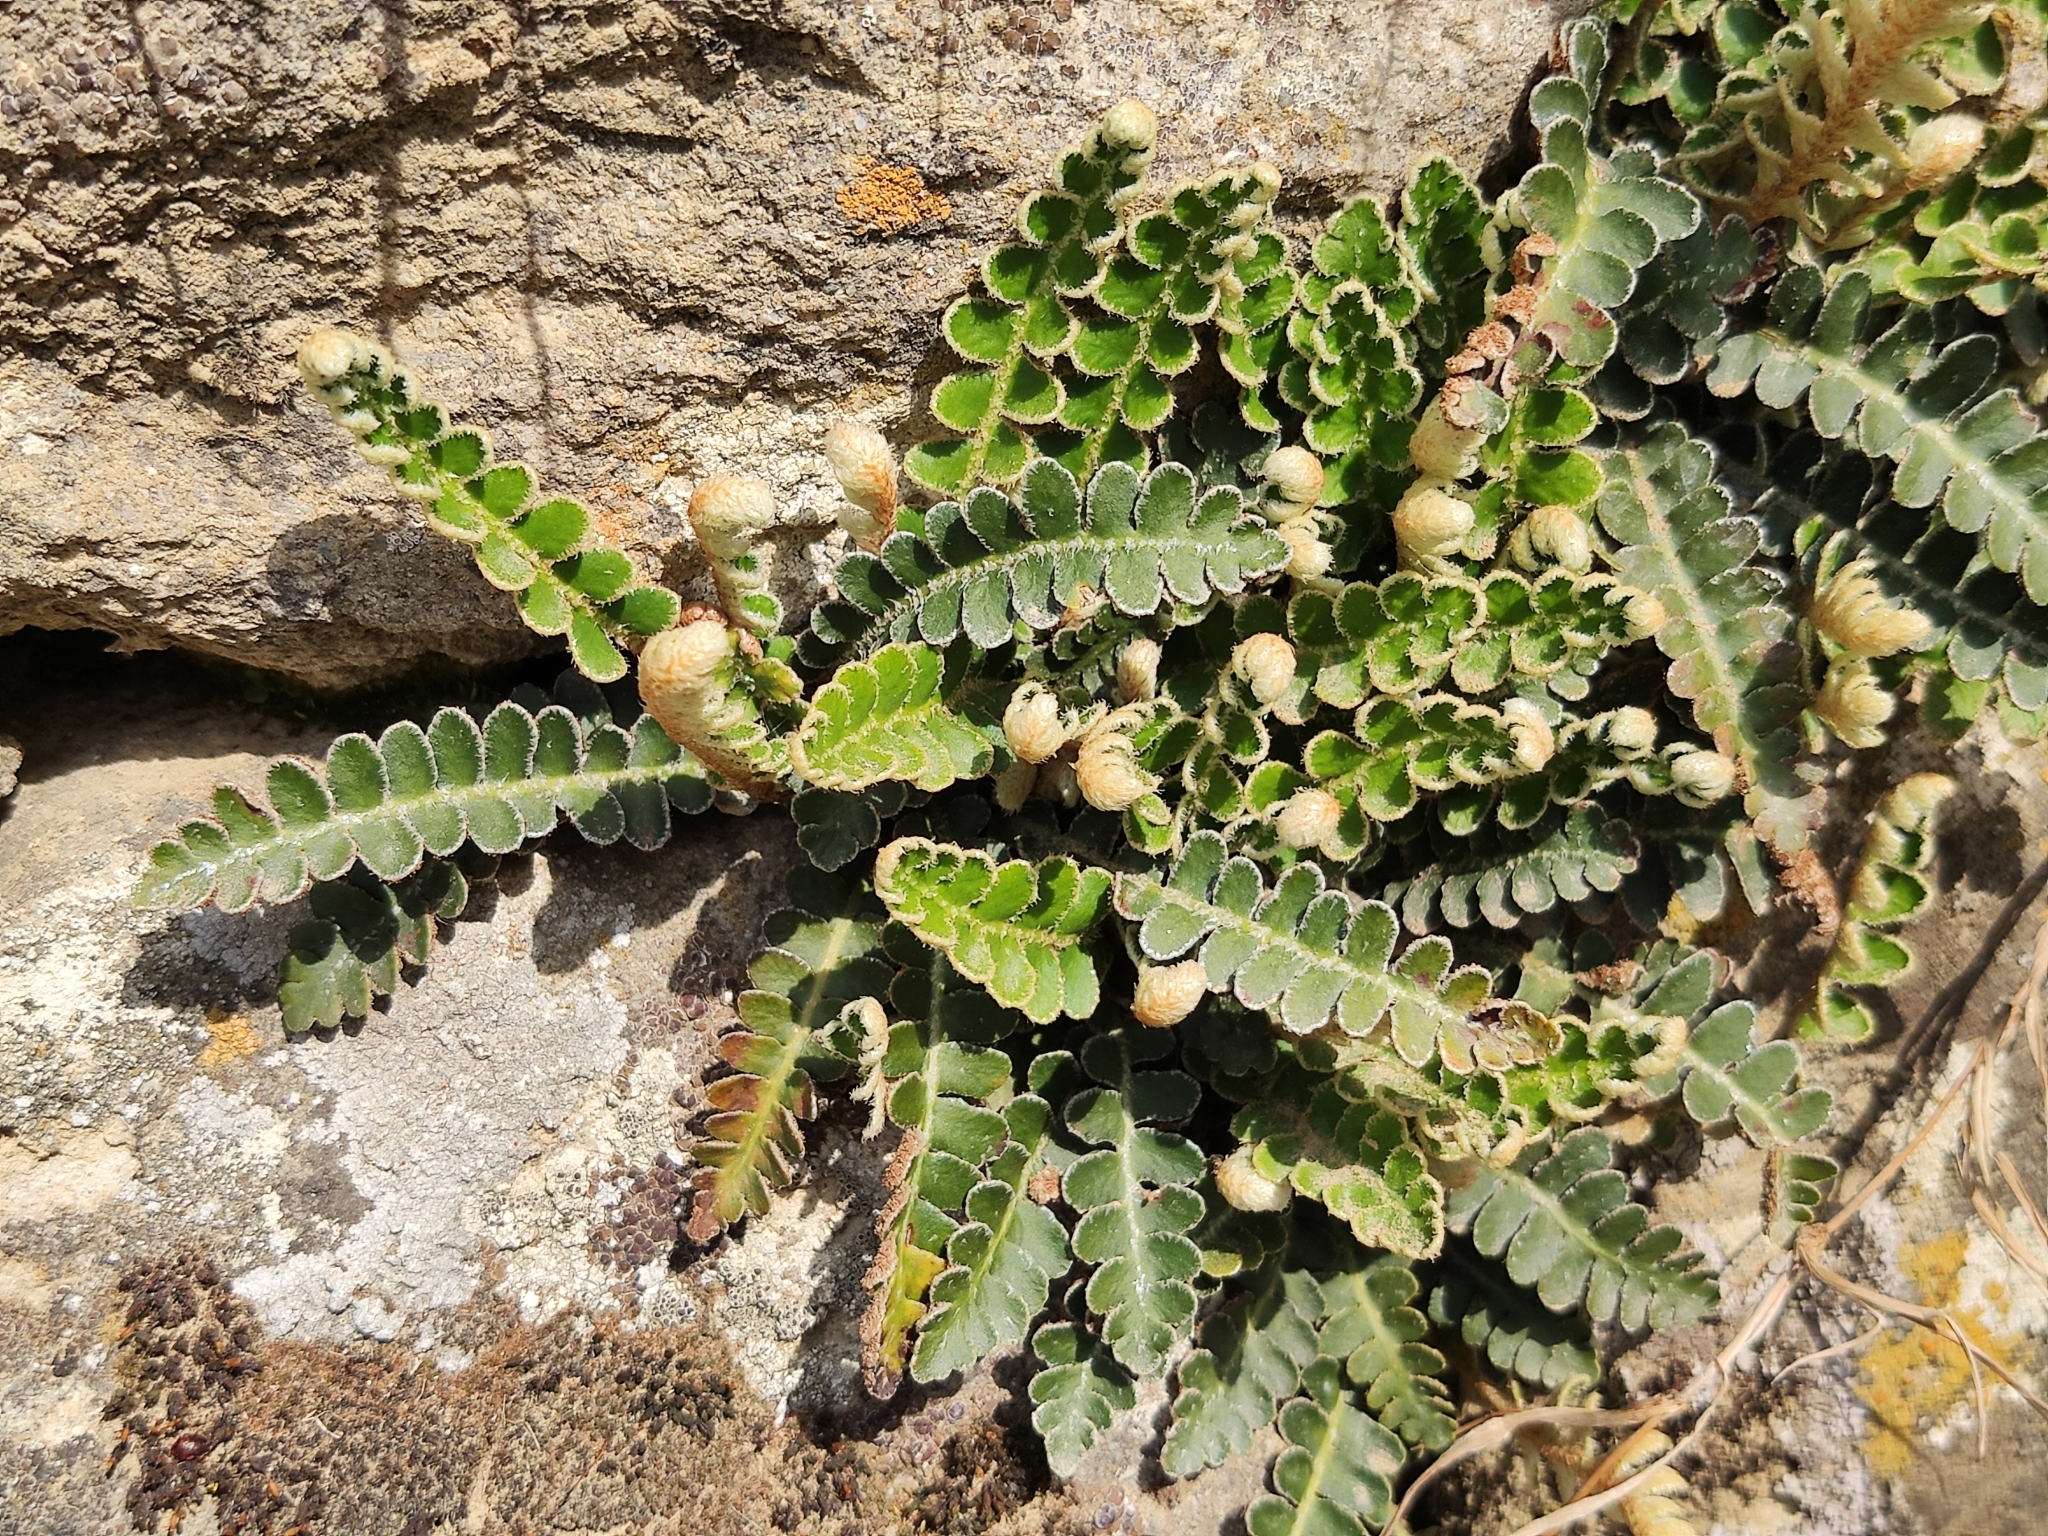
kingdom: Plantae
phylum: Tracheophyta
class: Polypodiopsida
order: Polypodiales
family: Aspleniaceae
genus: Asplenium
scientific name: Asplenium ceterach
